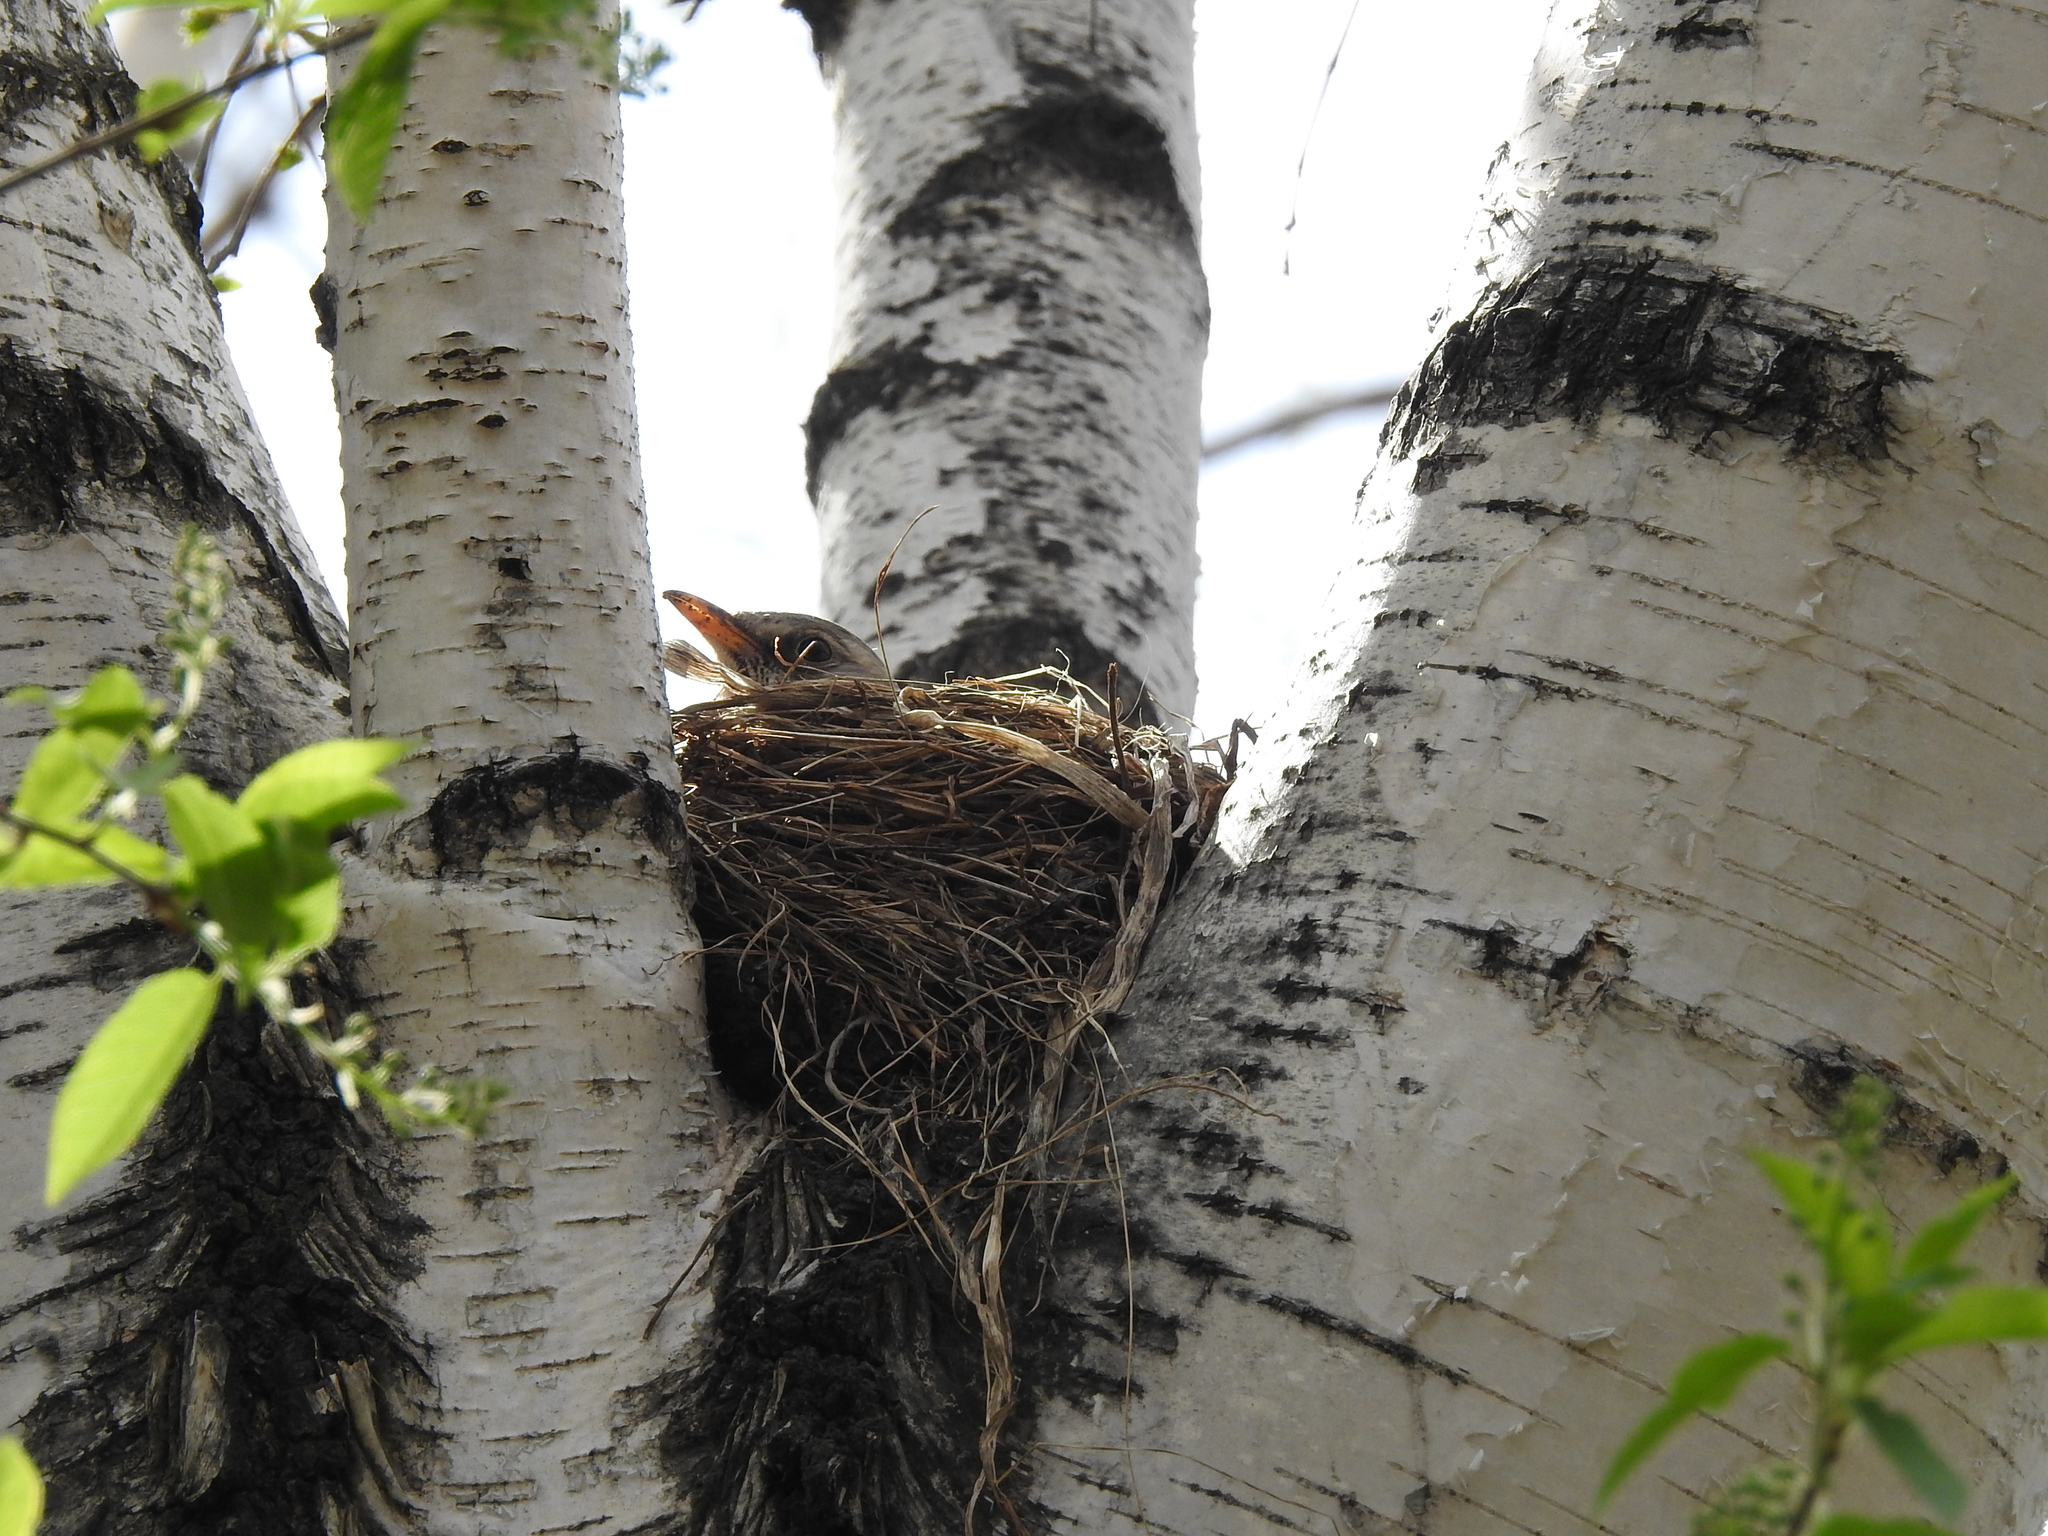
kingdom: Animalia
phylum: Chordata
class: Aves
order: Passeriformes
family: Turdidae
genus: Turdus
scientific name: Turdus pilaris
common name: Fieldfare
